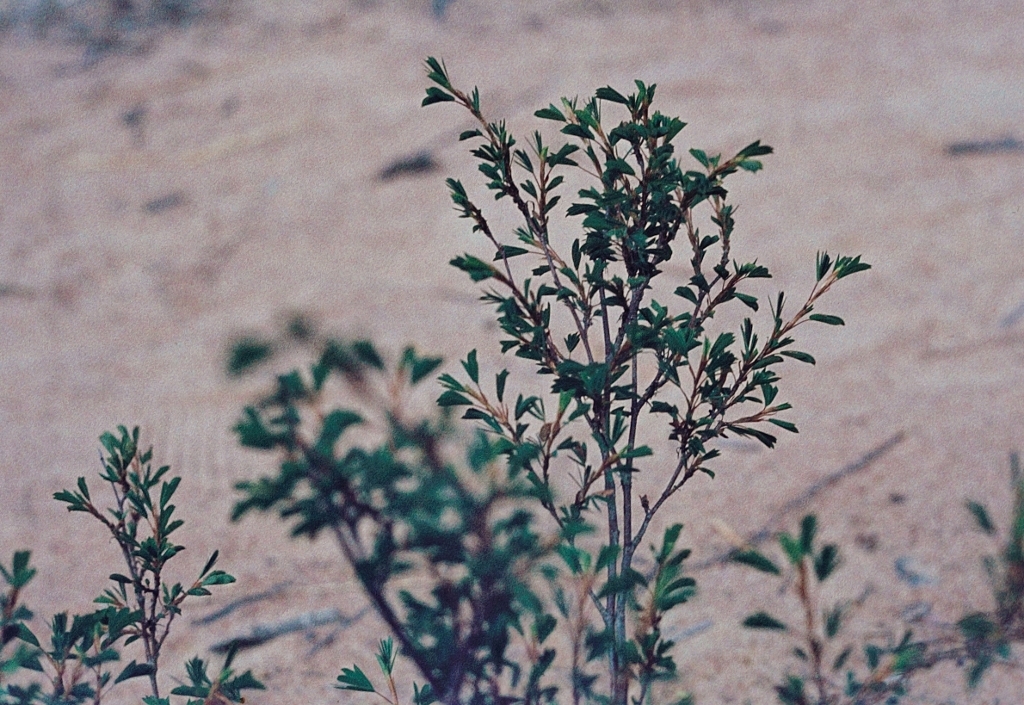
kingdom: Plantae
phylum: Tracheophyta
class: Magnoliopsida
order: Fabales
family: Fabaceae
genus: Kotschya
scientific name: Kotschya strobilantha
